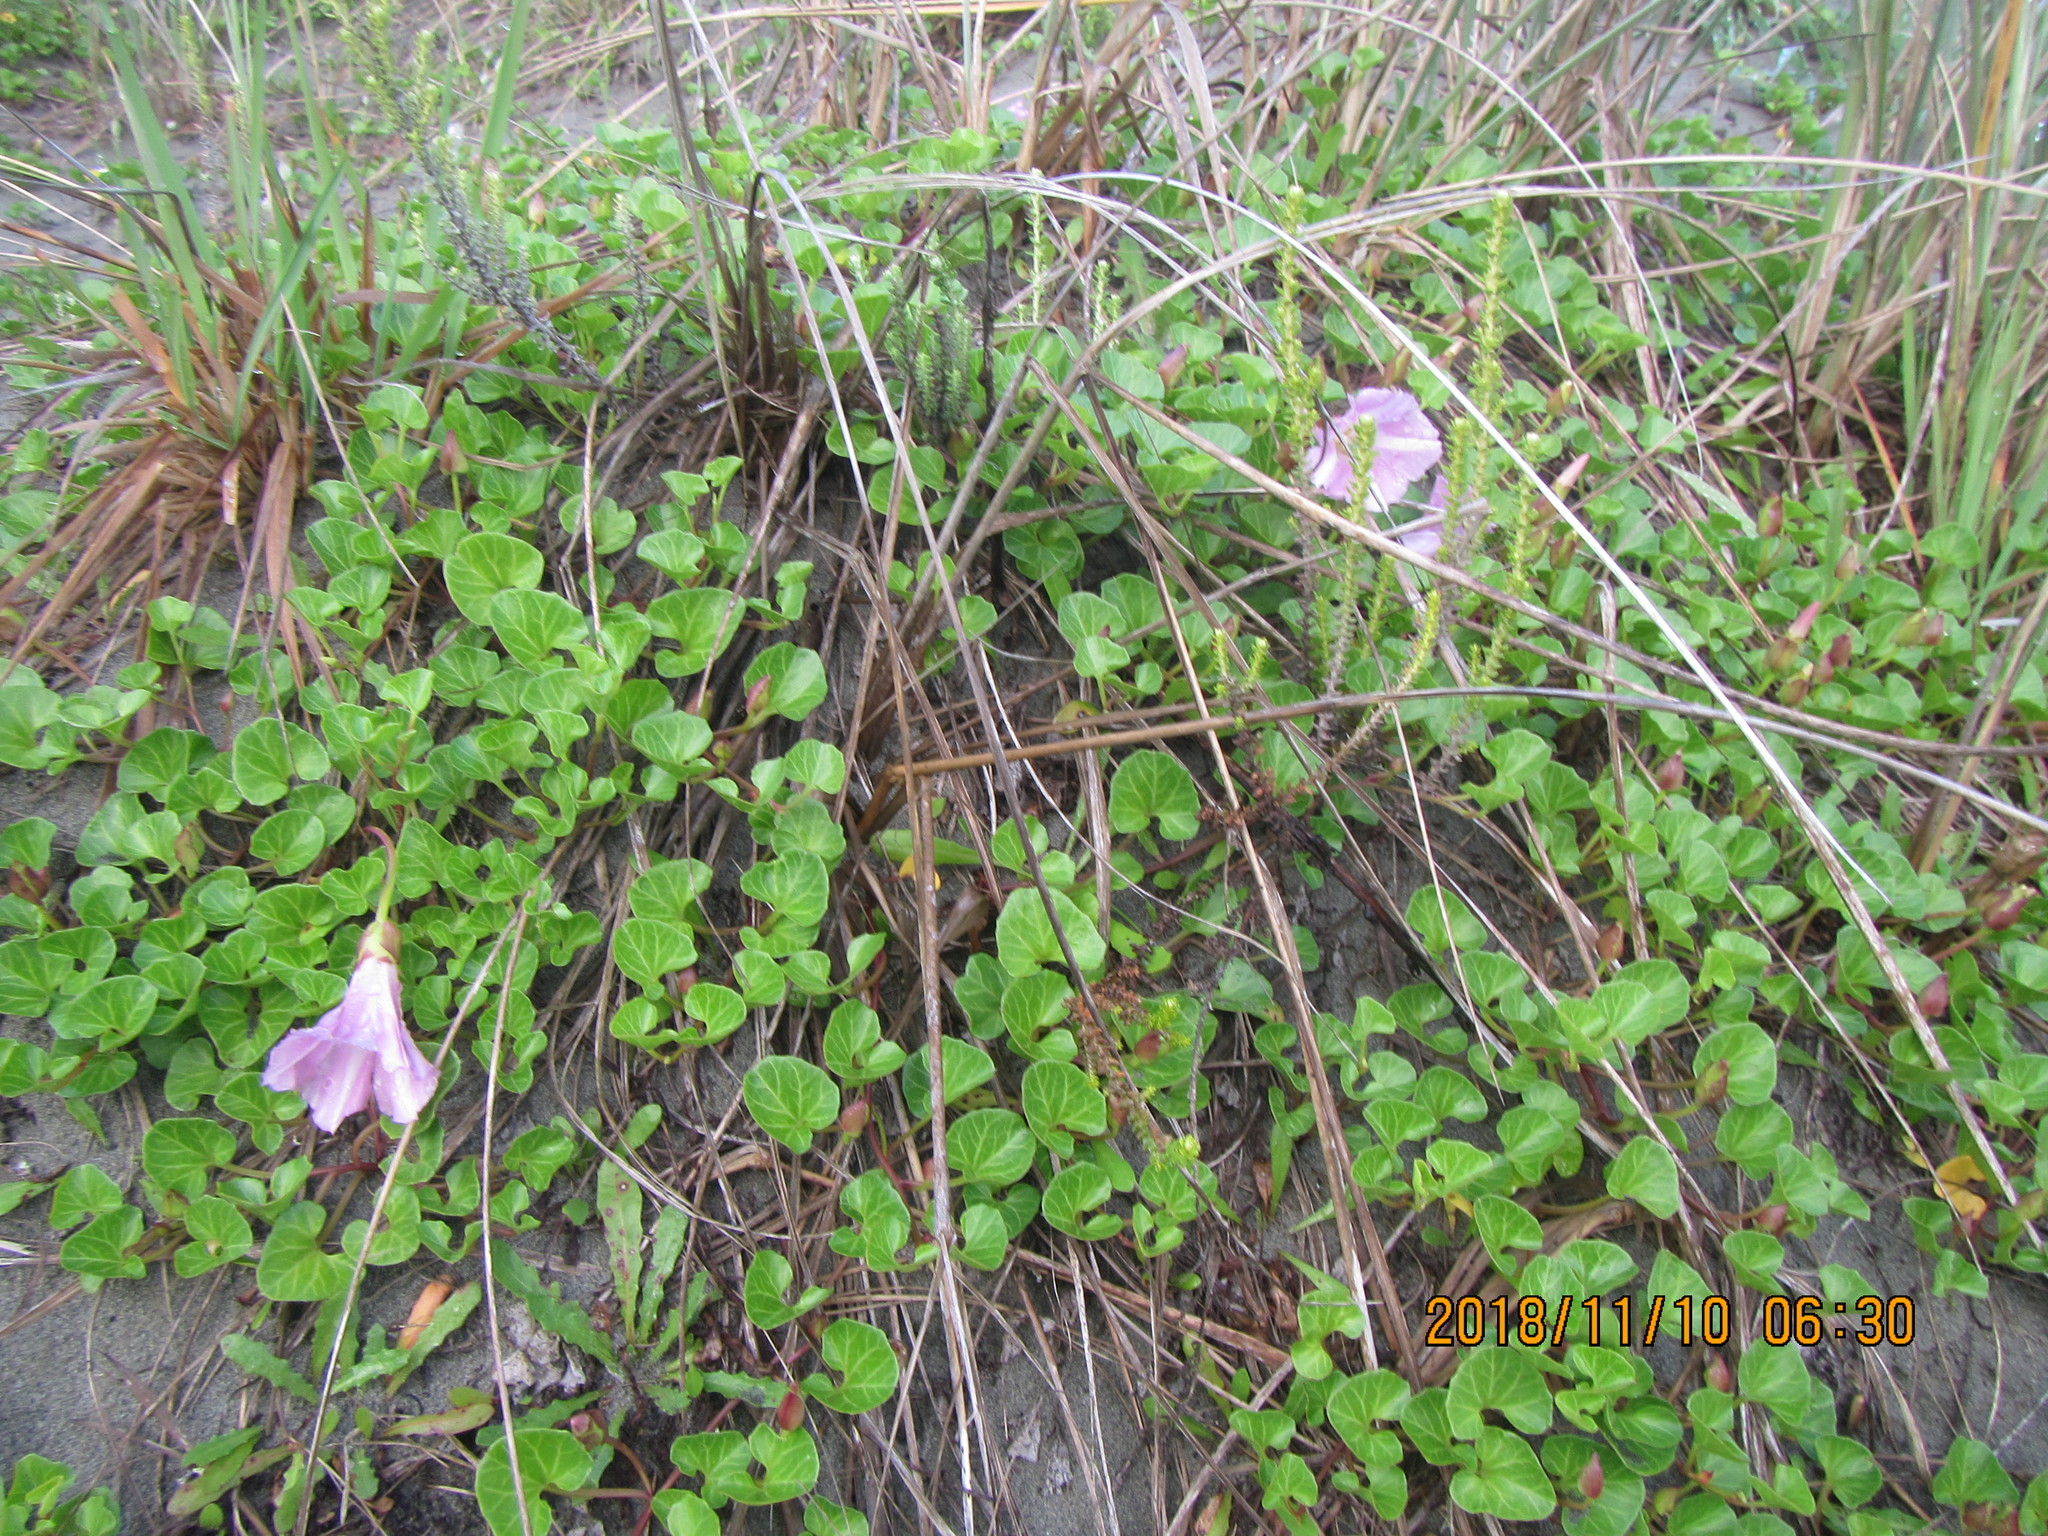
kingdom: Plantae
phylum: Tracheophyta
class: Magnoliopsida
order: Solanales
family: Convolvulaceae
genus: Calystegia
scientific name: Calystegia soldanella
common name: Sea bindweed
